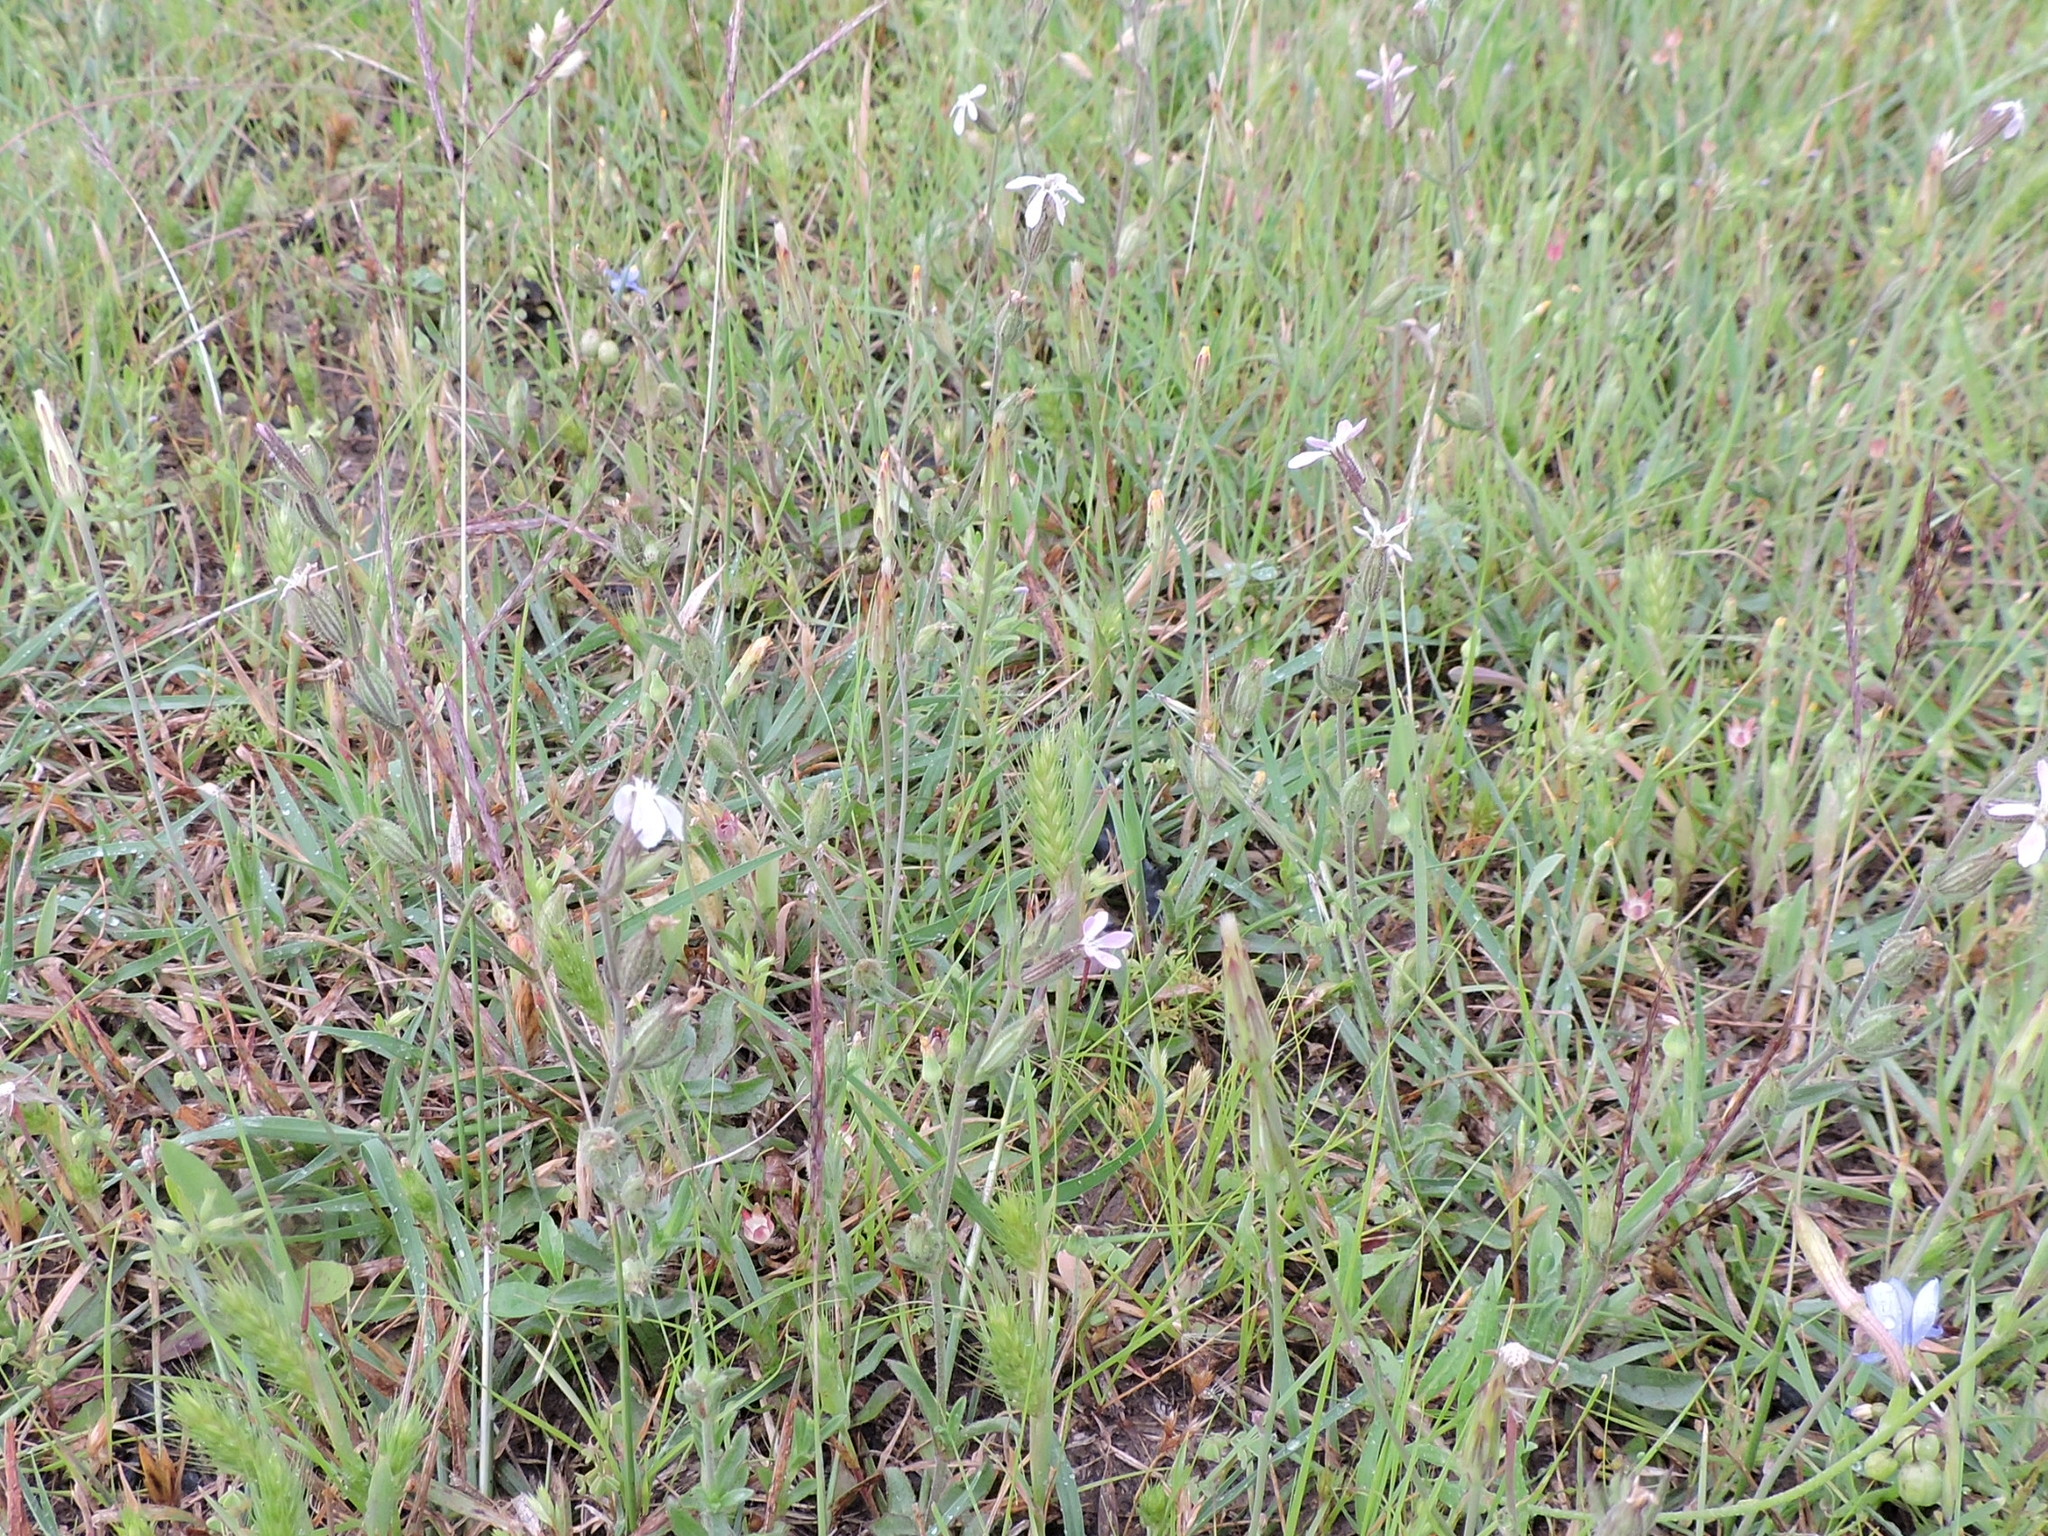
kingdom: Plantae
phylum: Tracheophyta
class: Magnoliopsida
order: Caryophyllales
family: Caryophyllaceae
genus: Silene
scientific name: Silene gallica
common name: Small-flowered catchfly
